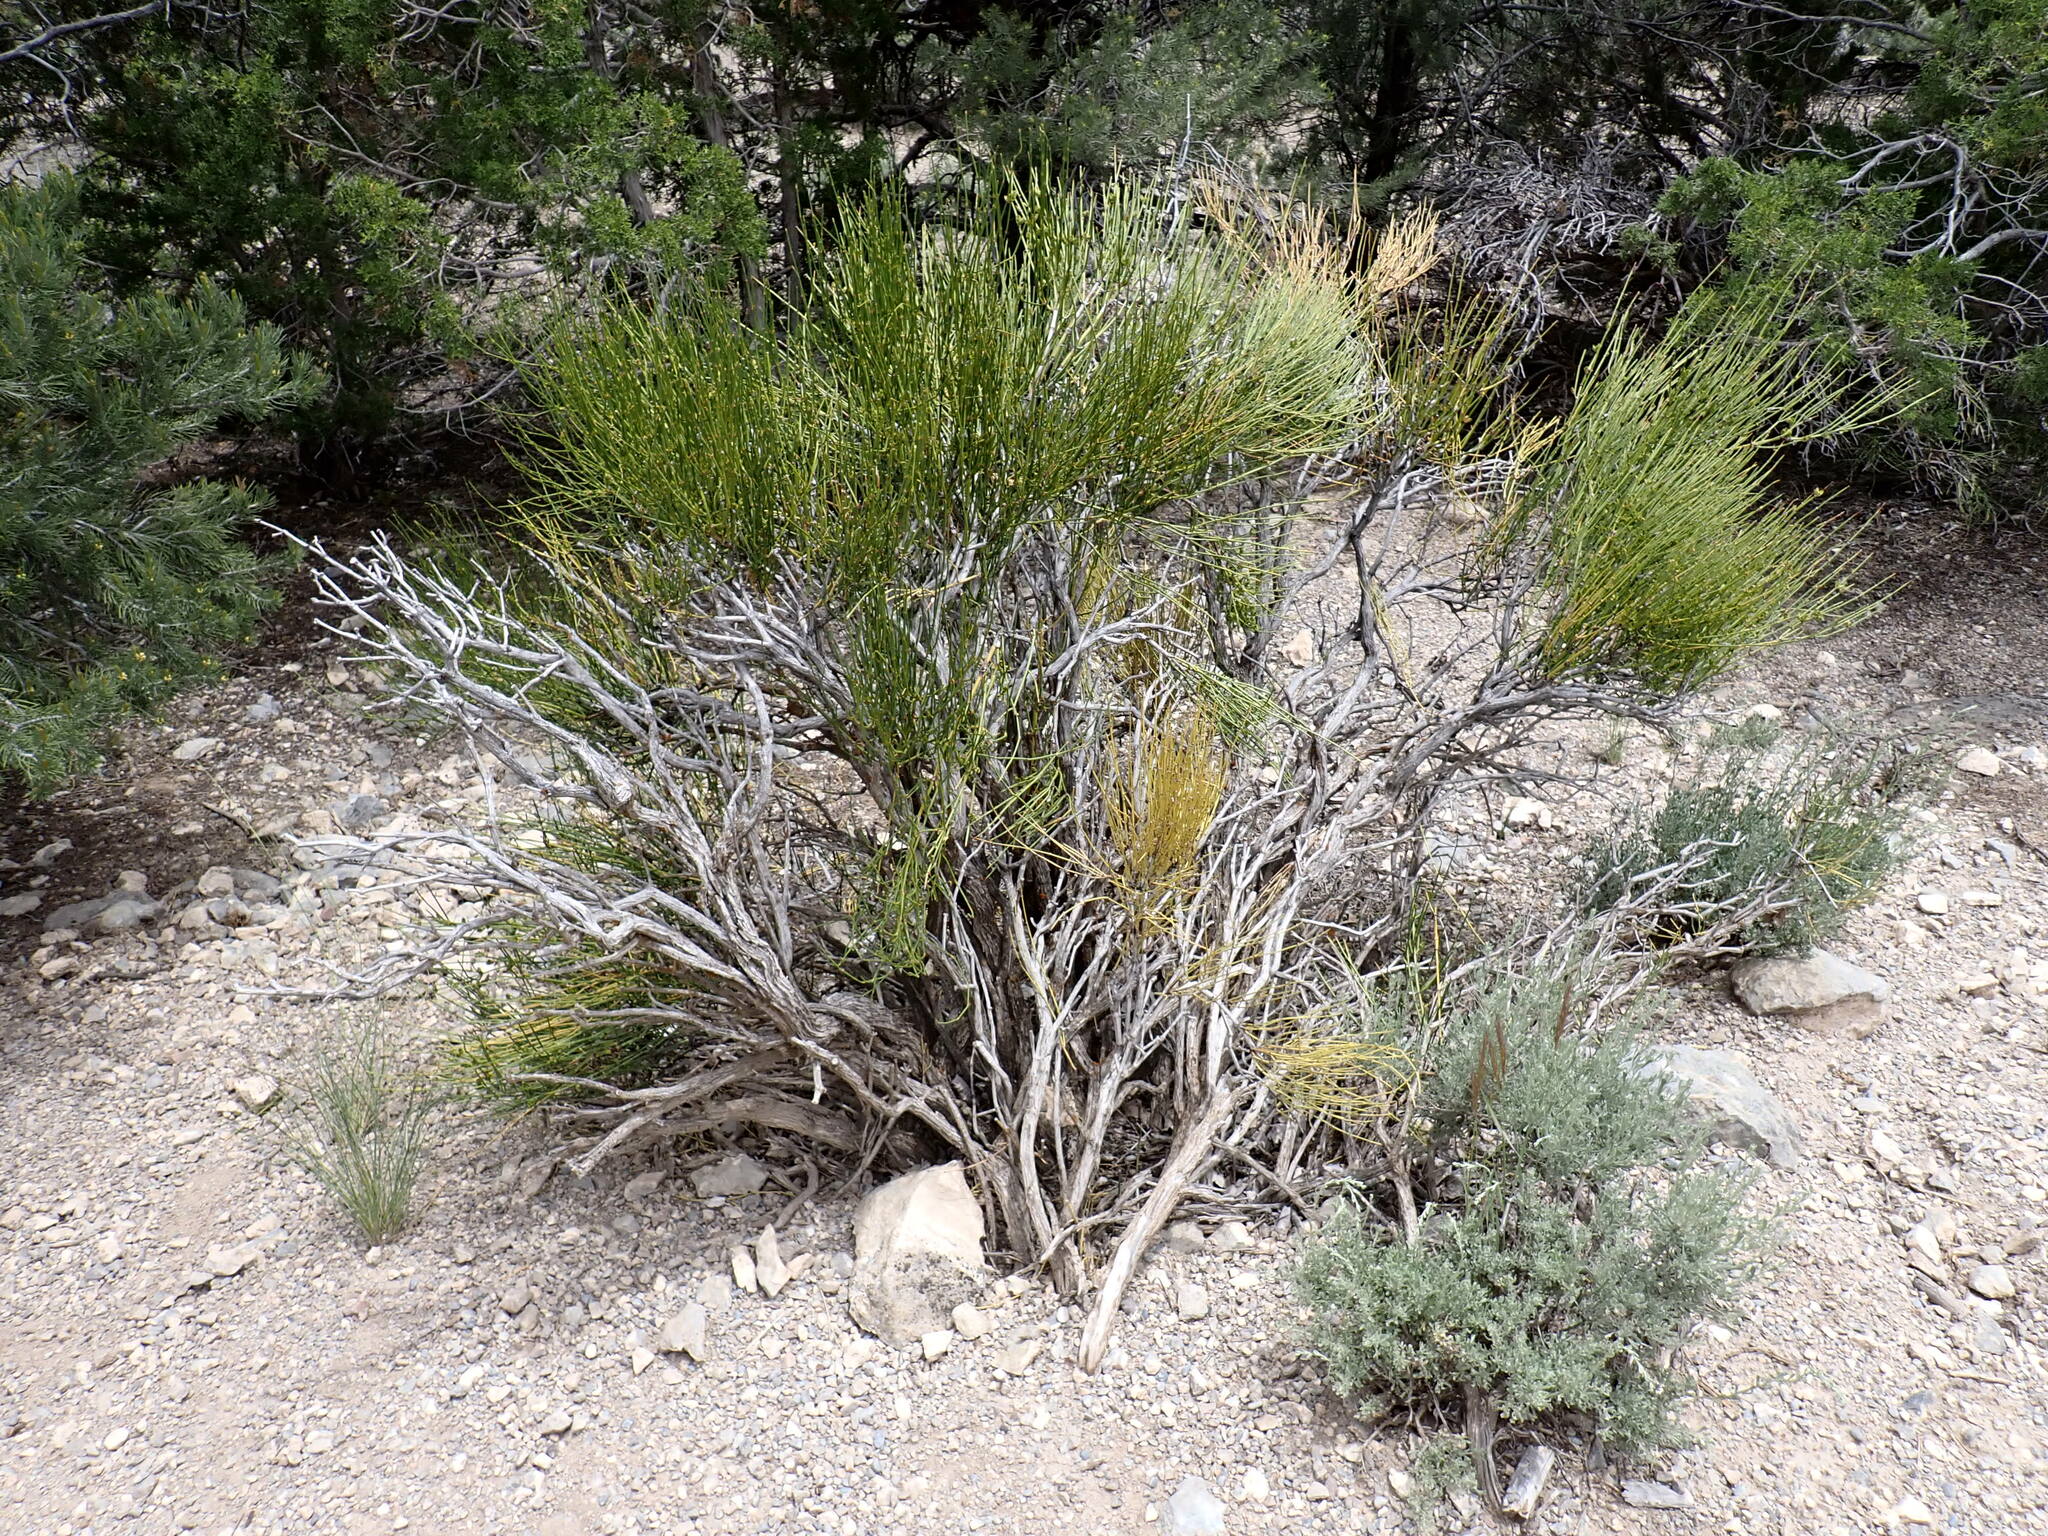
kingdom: Plantae
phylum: Tracheophyta
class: Gnetopsida
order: Ephedrales
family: Ephedraceae
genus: Ephedra
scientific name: Ephedra viridis
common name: Green ephedra
